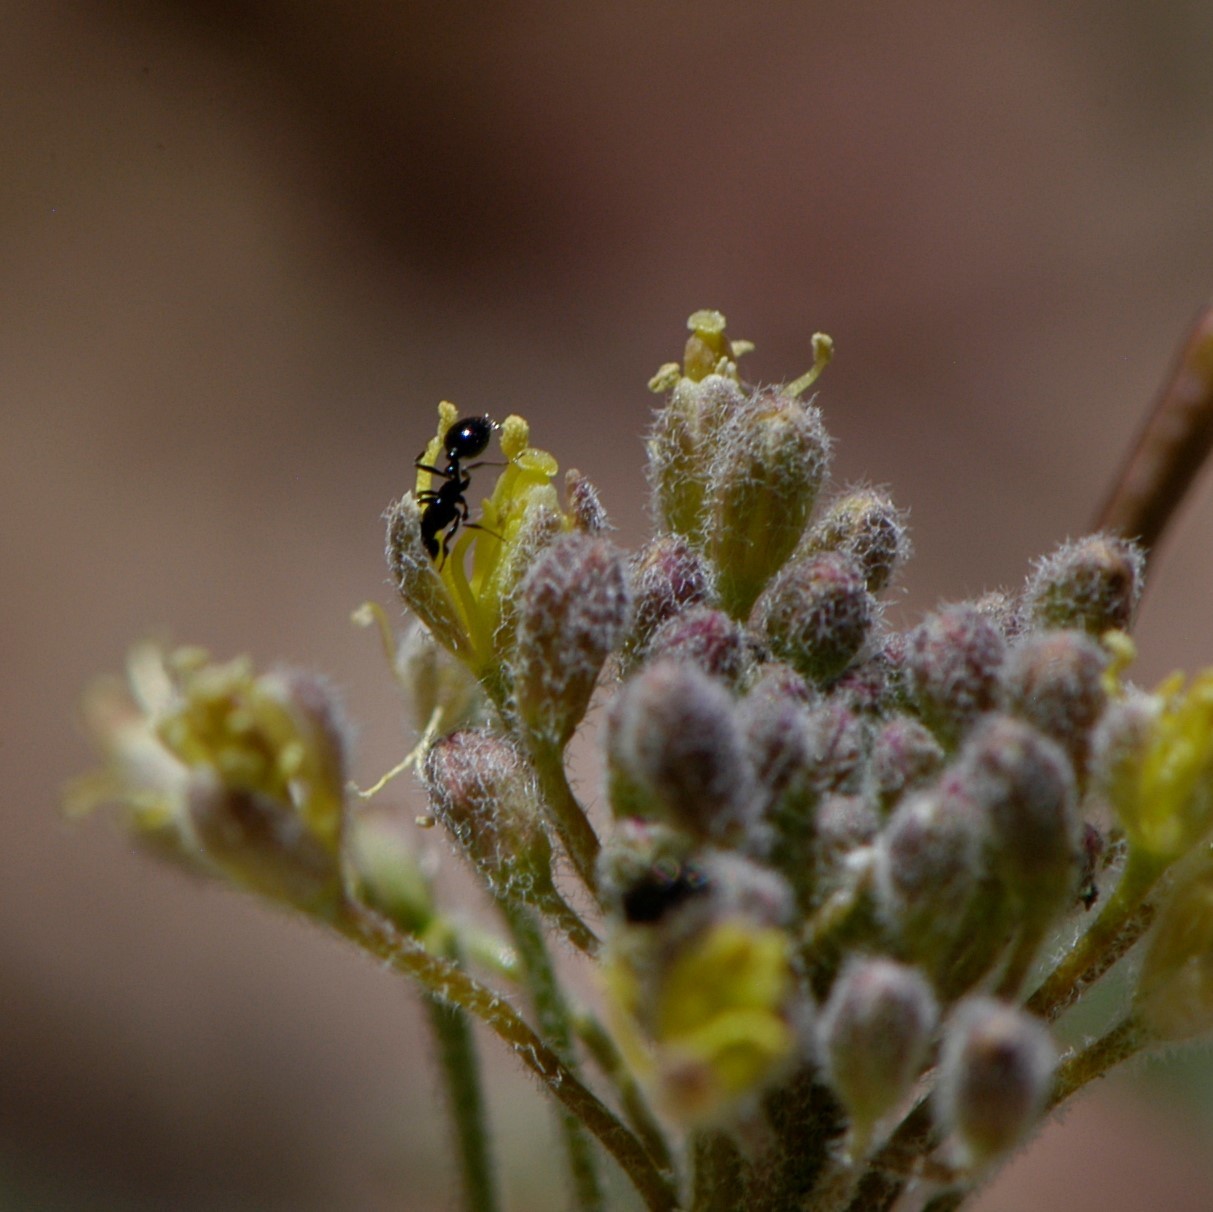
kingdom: Animalia
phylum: Arthropoda
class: Insecta
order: Hymenoptera
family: Formicidae
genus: Monomorium
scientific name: Monomorium minimum
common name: Little black ant
